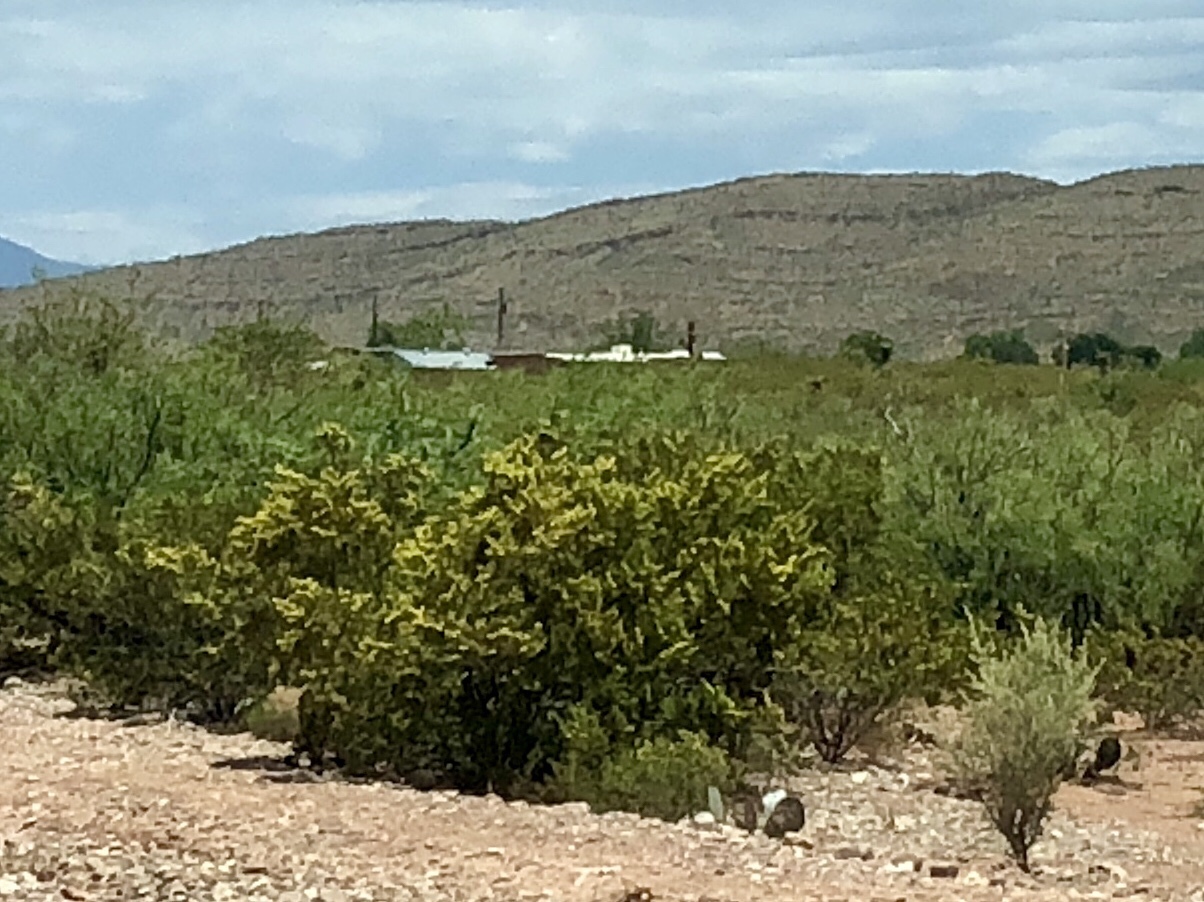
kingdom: Plantae
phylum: Tracheophyta
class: Magnoliopsida
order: Zygophyllales
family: Zygophyllaceae
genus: Larrea
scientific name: Larrea tridentata
